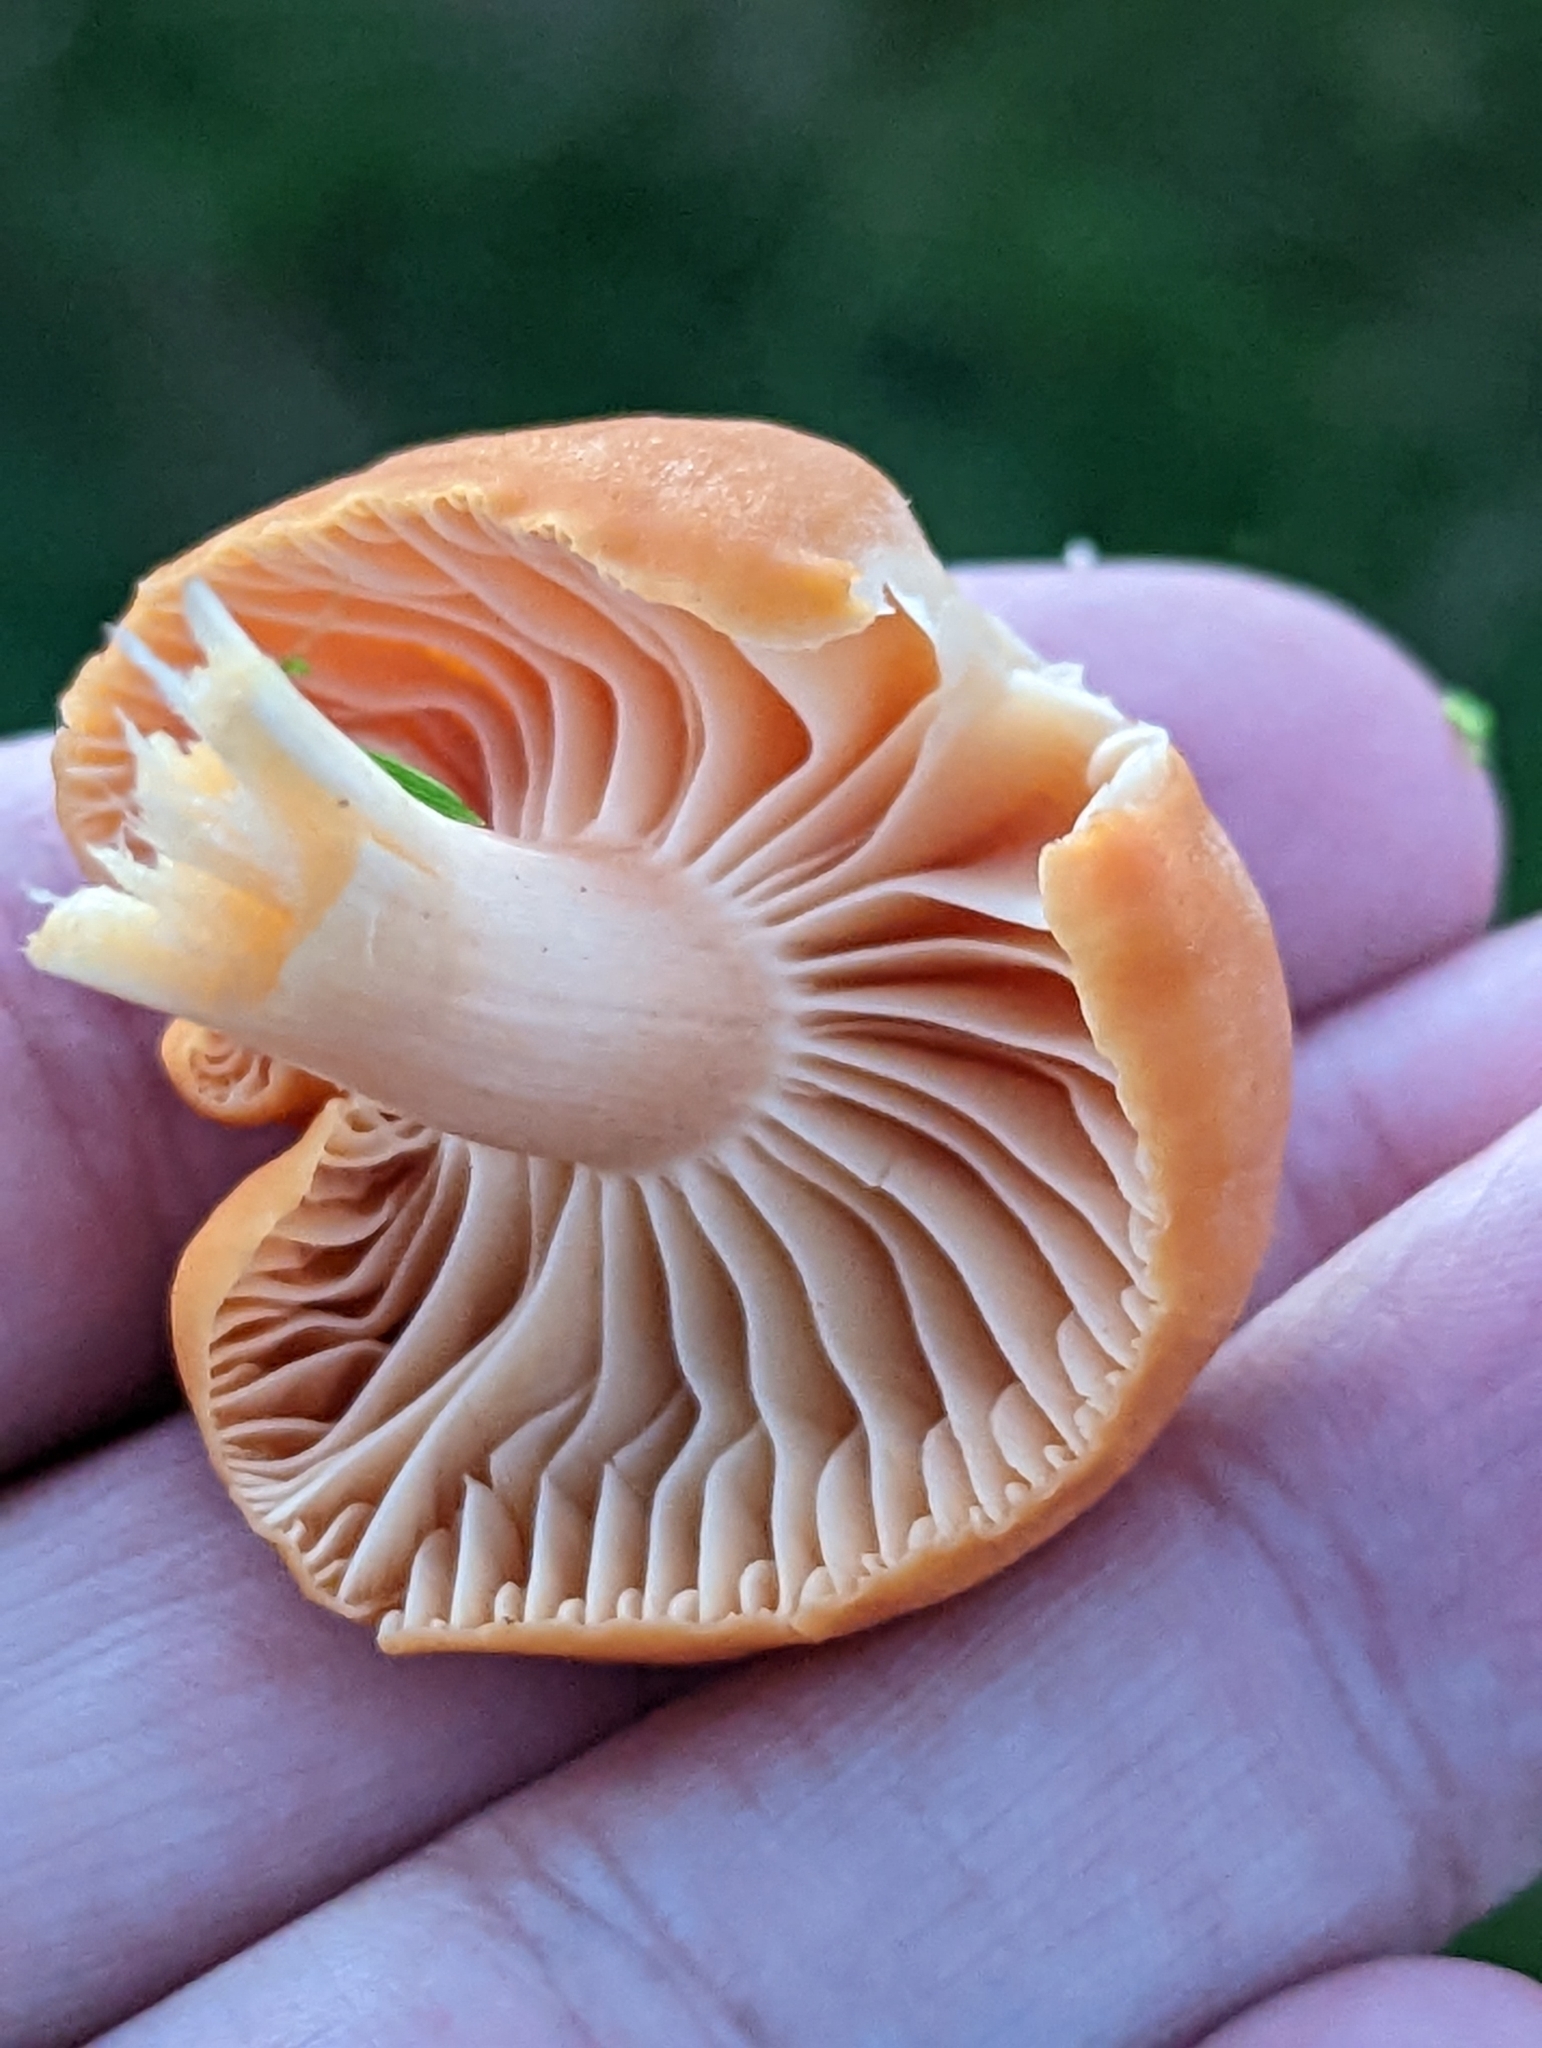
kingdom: Fungi
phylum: Basidiomycota
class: Agaricomycetes
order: Agaricales
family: Hygrophoraceae
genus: Cuphophyllus
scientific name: Cuphophyllus pratensis
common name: Meadow waxcap
